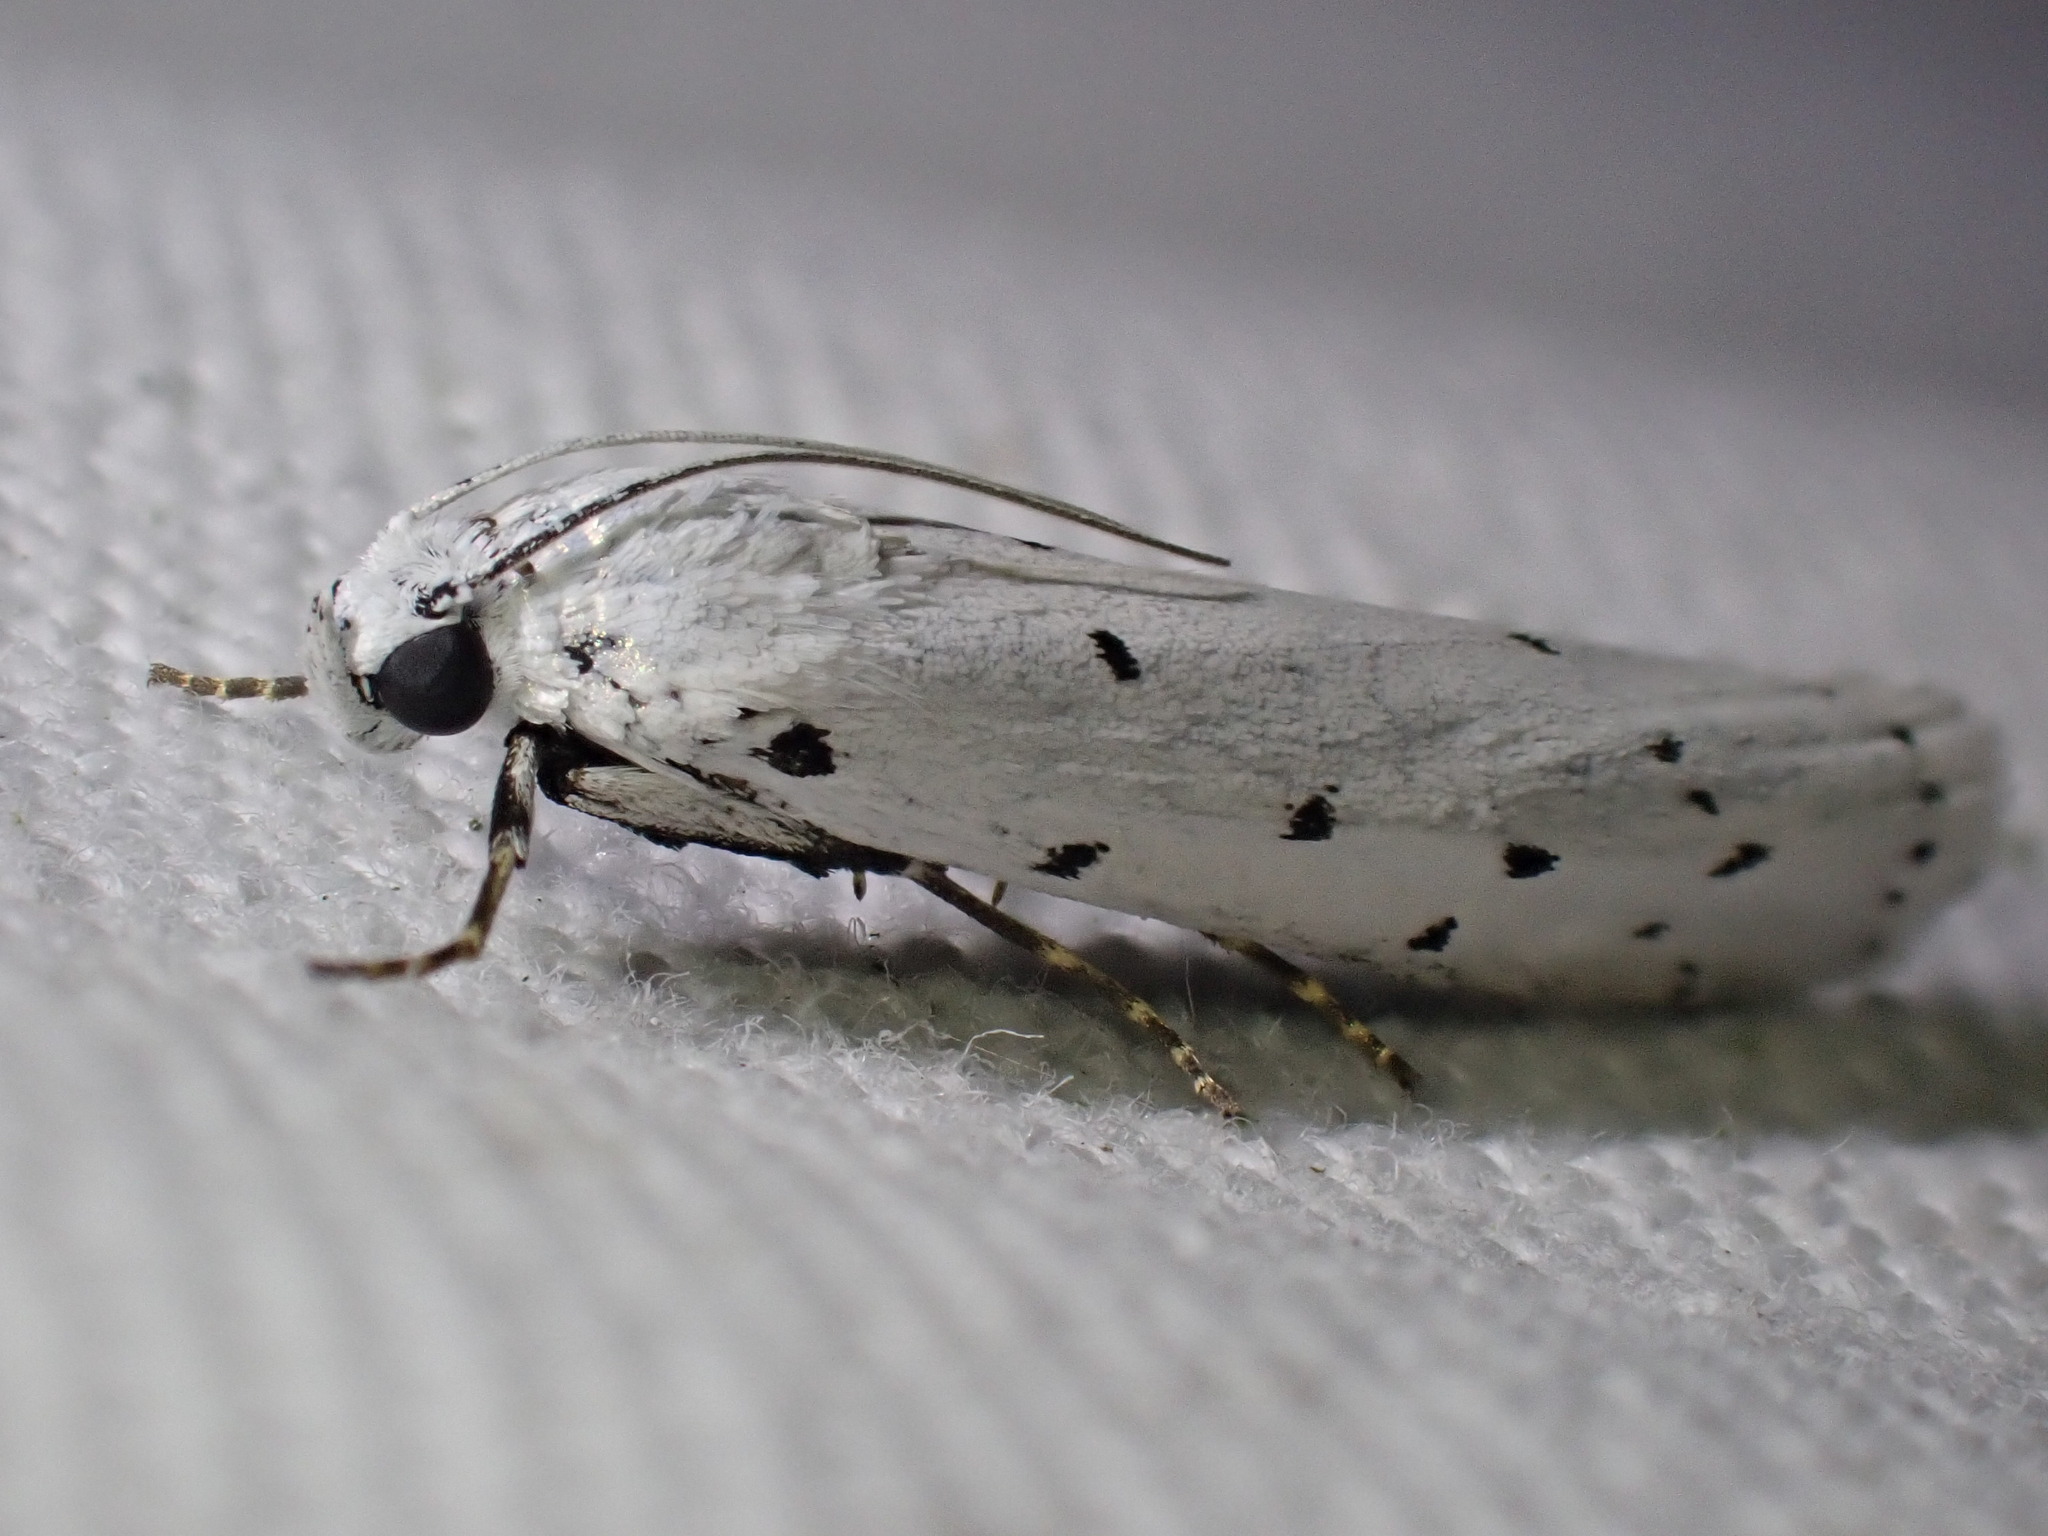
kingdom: Animalia
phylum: Arthropoda
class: Insecta
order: Lepidoptera
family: Pyralidae
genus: Myelois
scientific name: Myelois circumvoluta
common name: Thistle ermine
